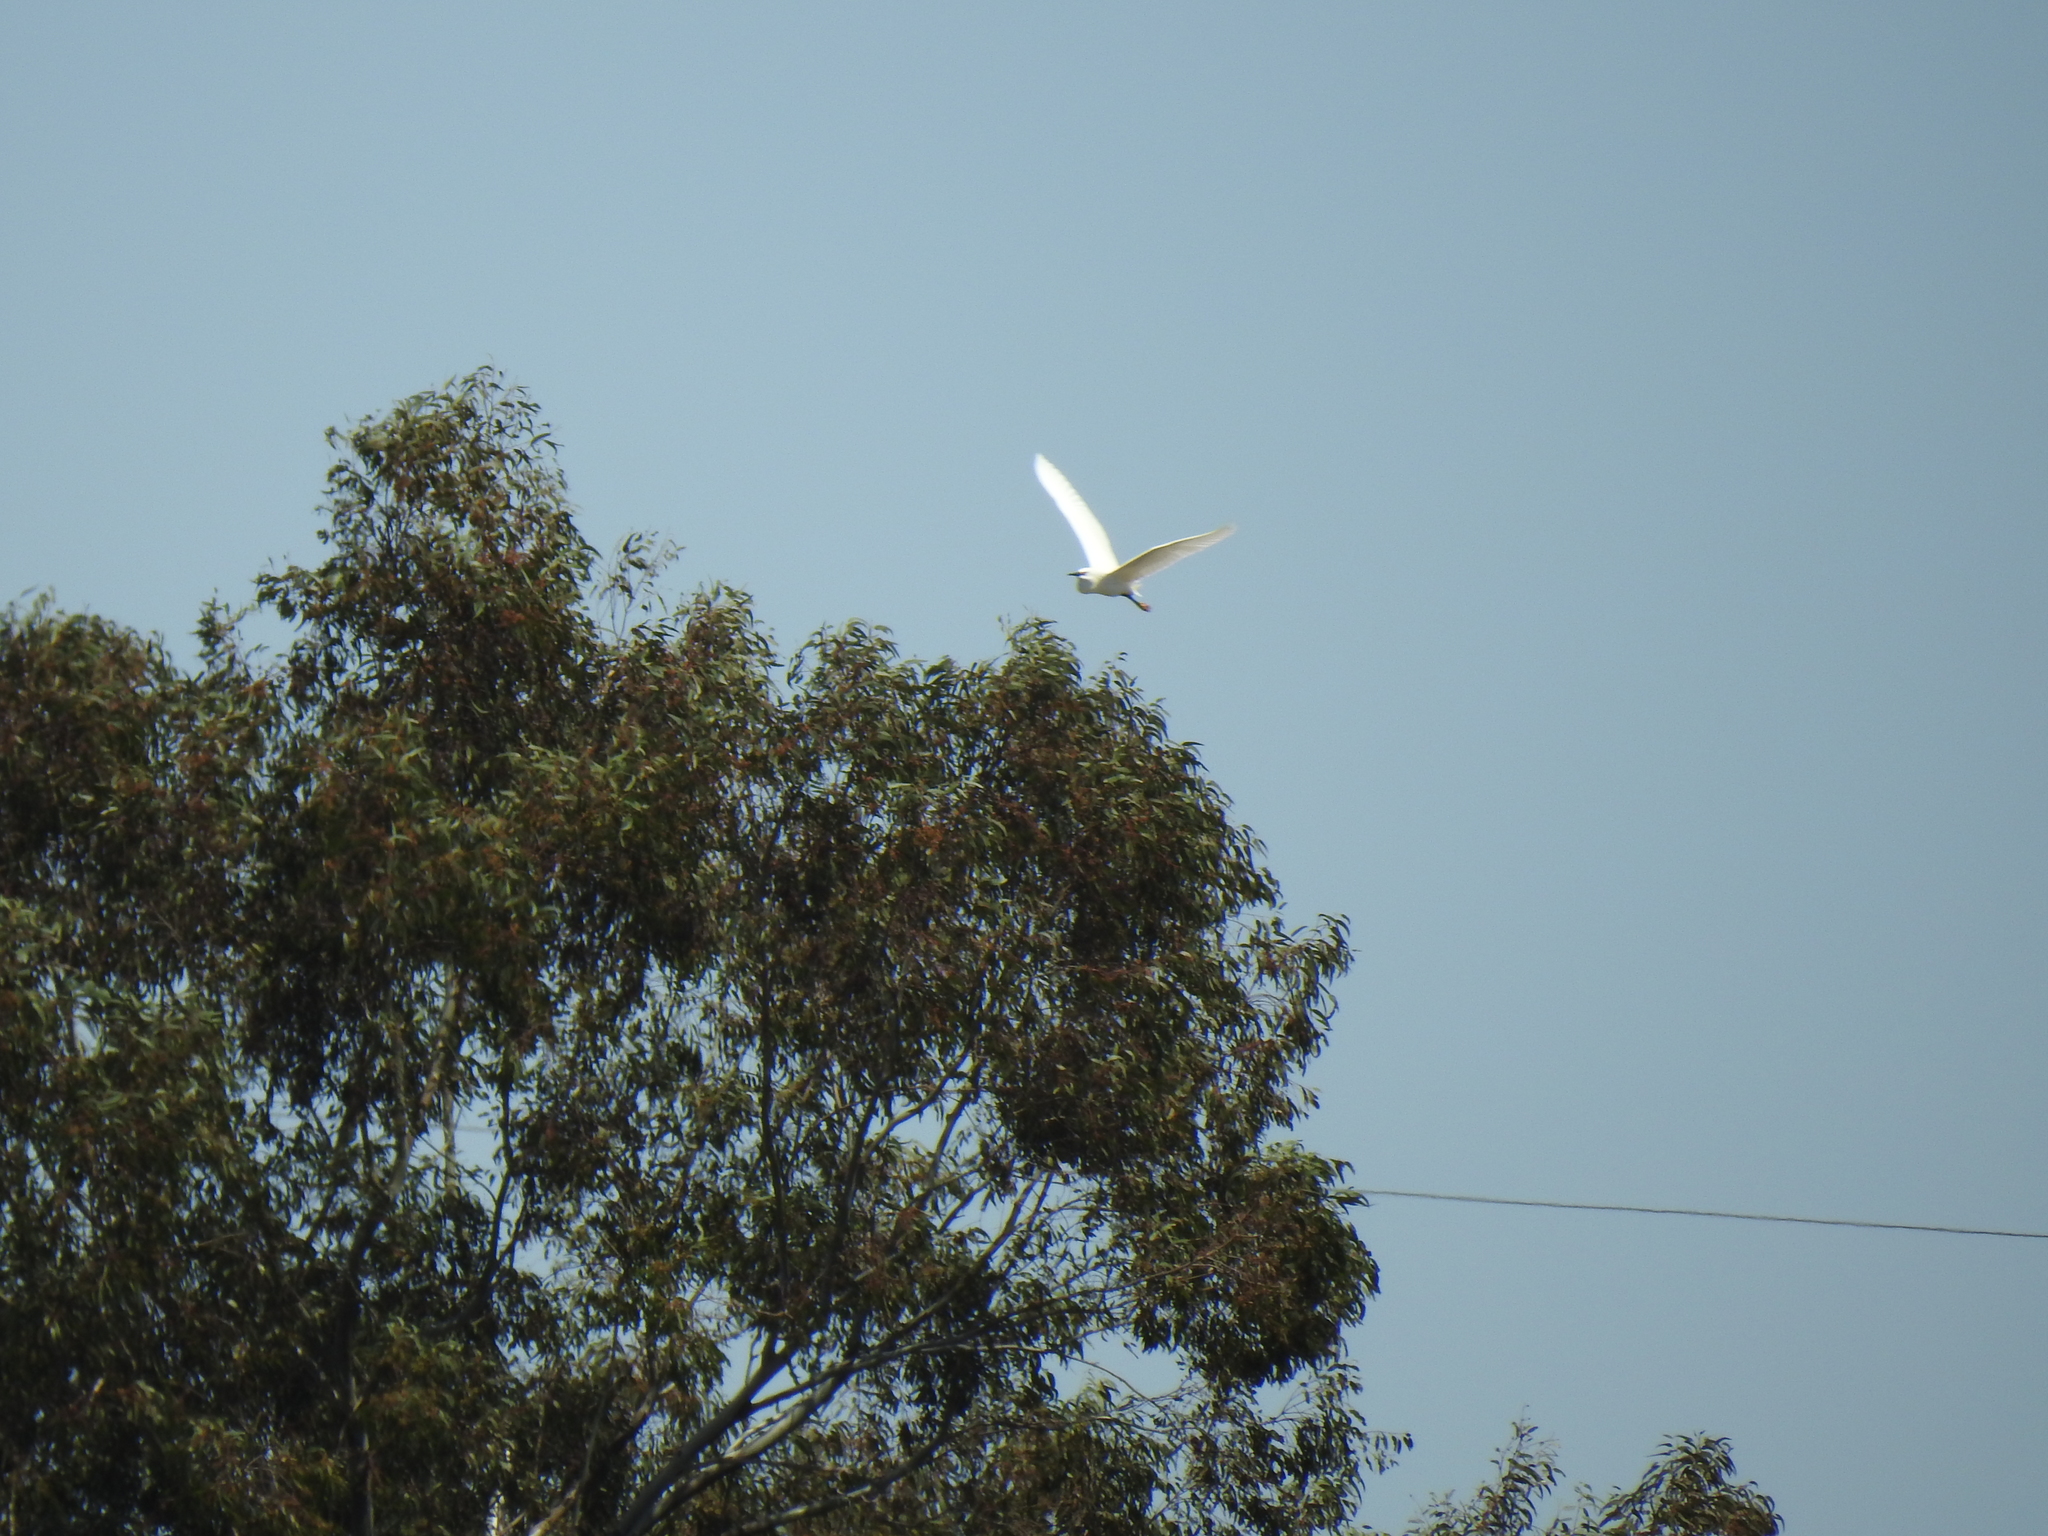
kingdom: Animalia
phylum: Chordata
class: Aves
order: Pelecaniformes
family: Ardeidae
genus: Egretta
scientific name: Egretta thula
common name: Snowy egret
